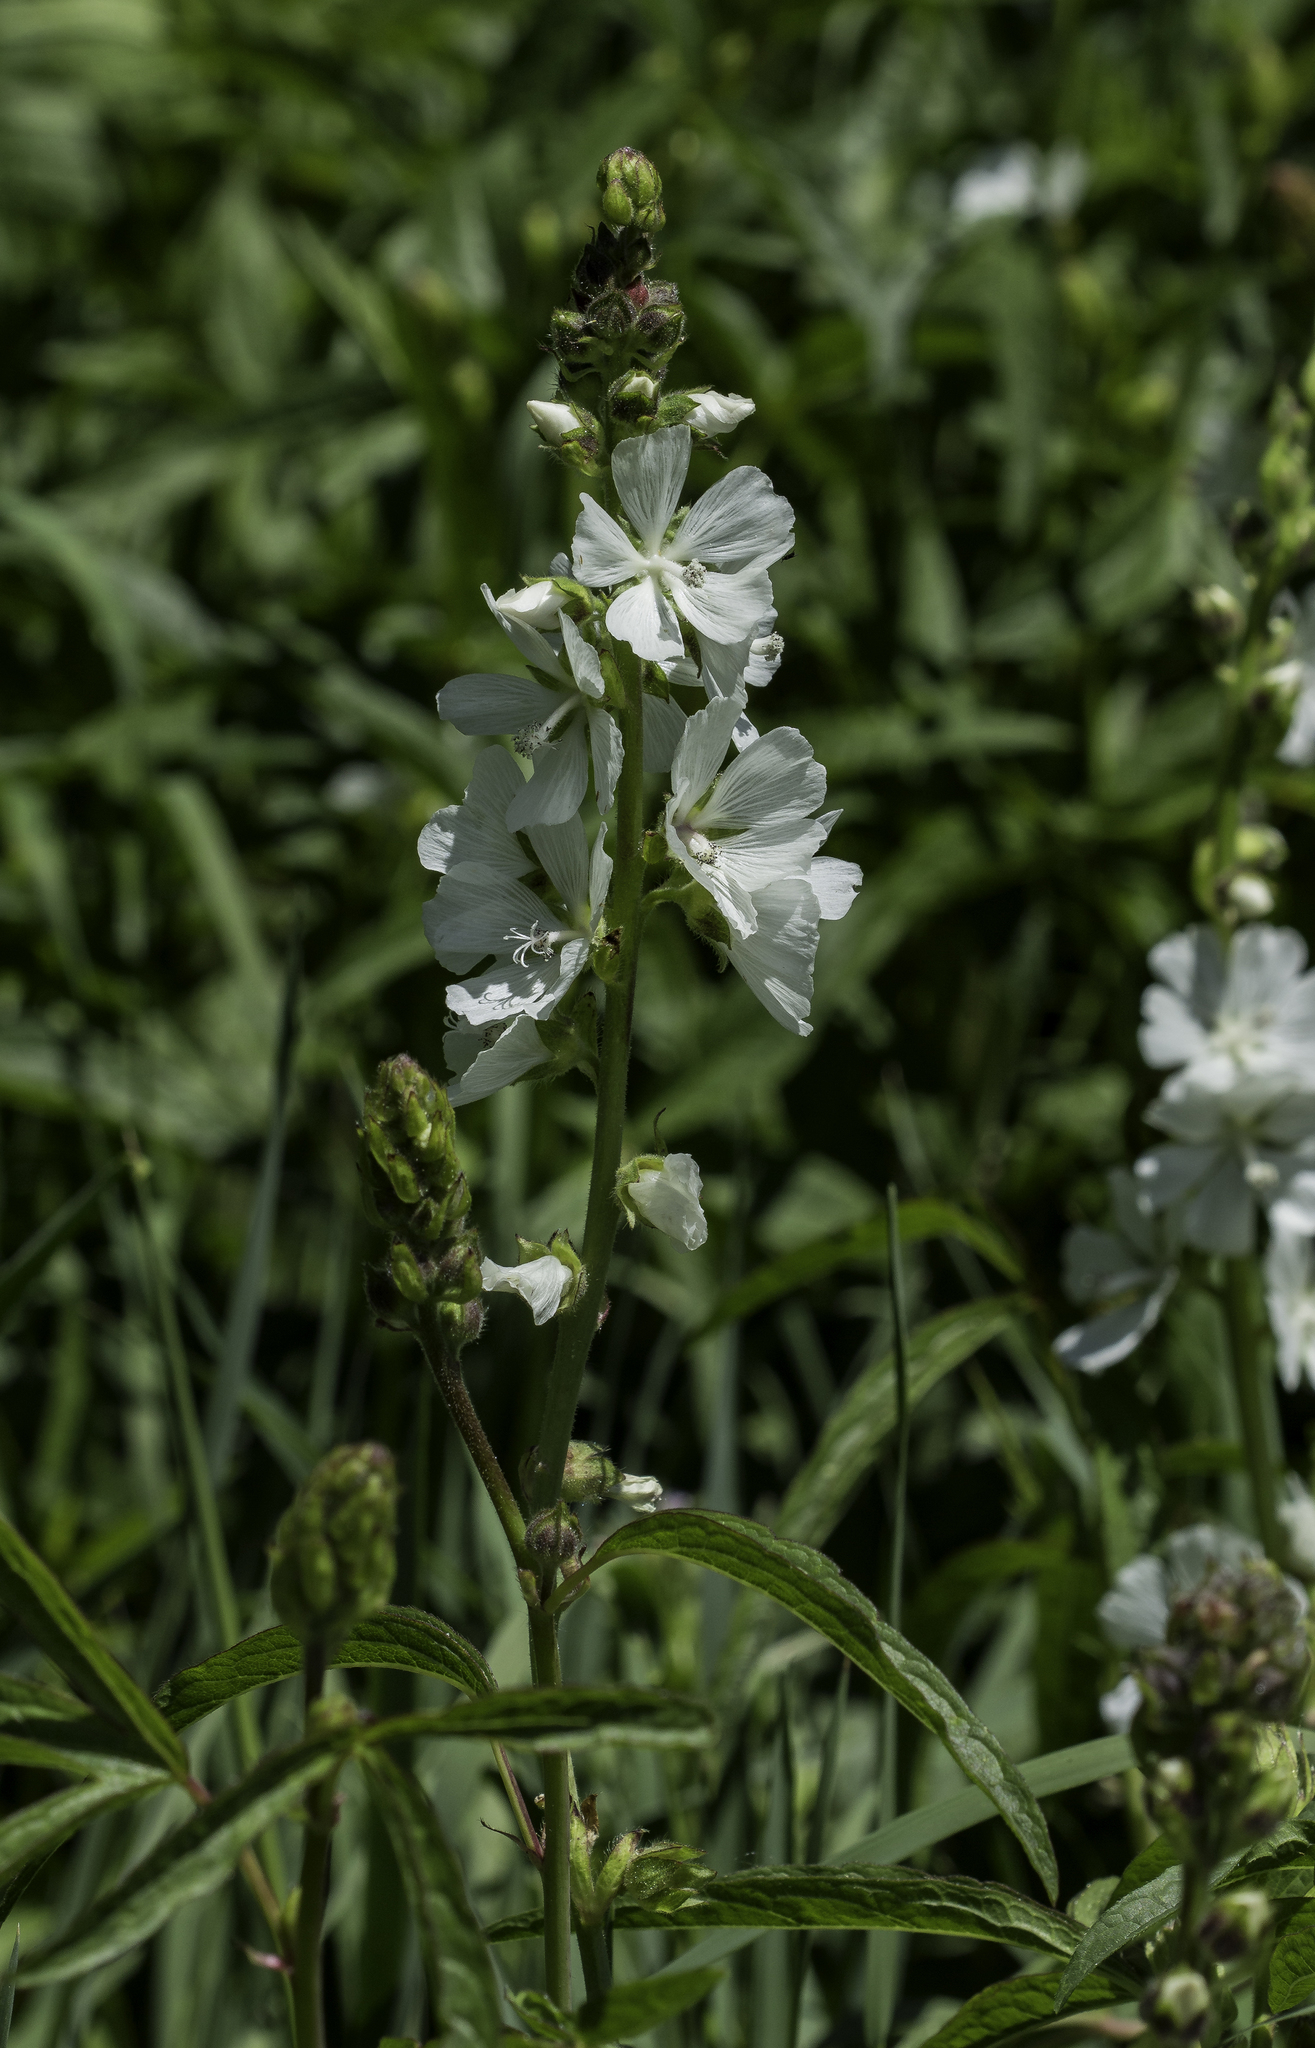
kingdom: Plantae
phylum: Tracheophyta
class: Magnoliopsida
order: Malvales
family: Malvaceae
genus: Sidalcea
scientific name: Sidalcea candida
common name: Prairie-mallow
